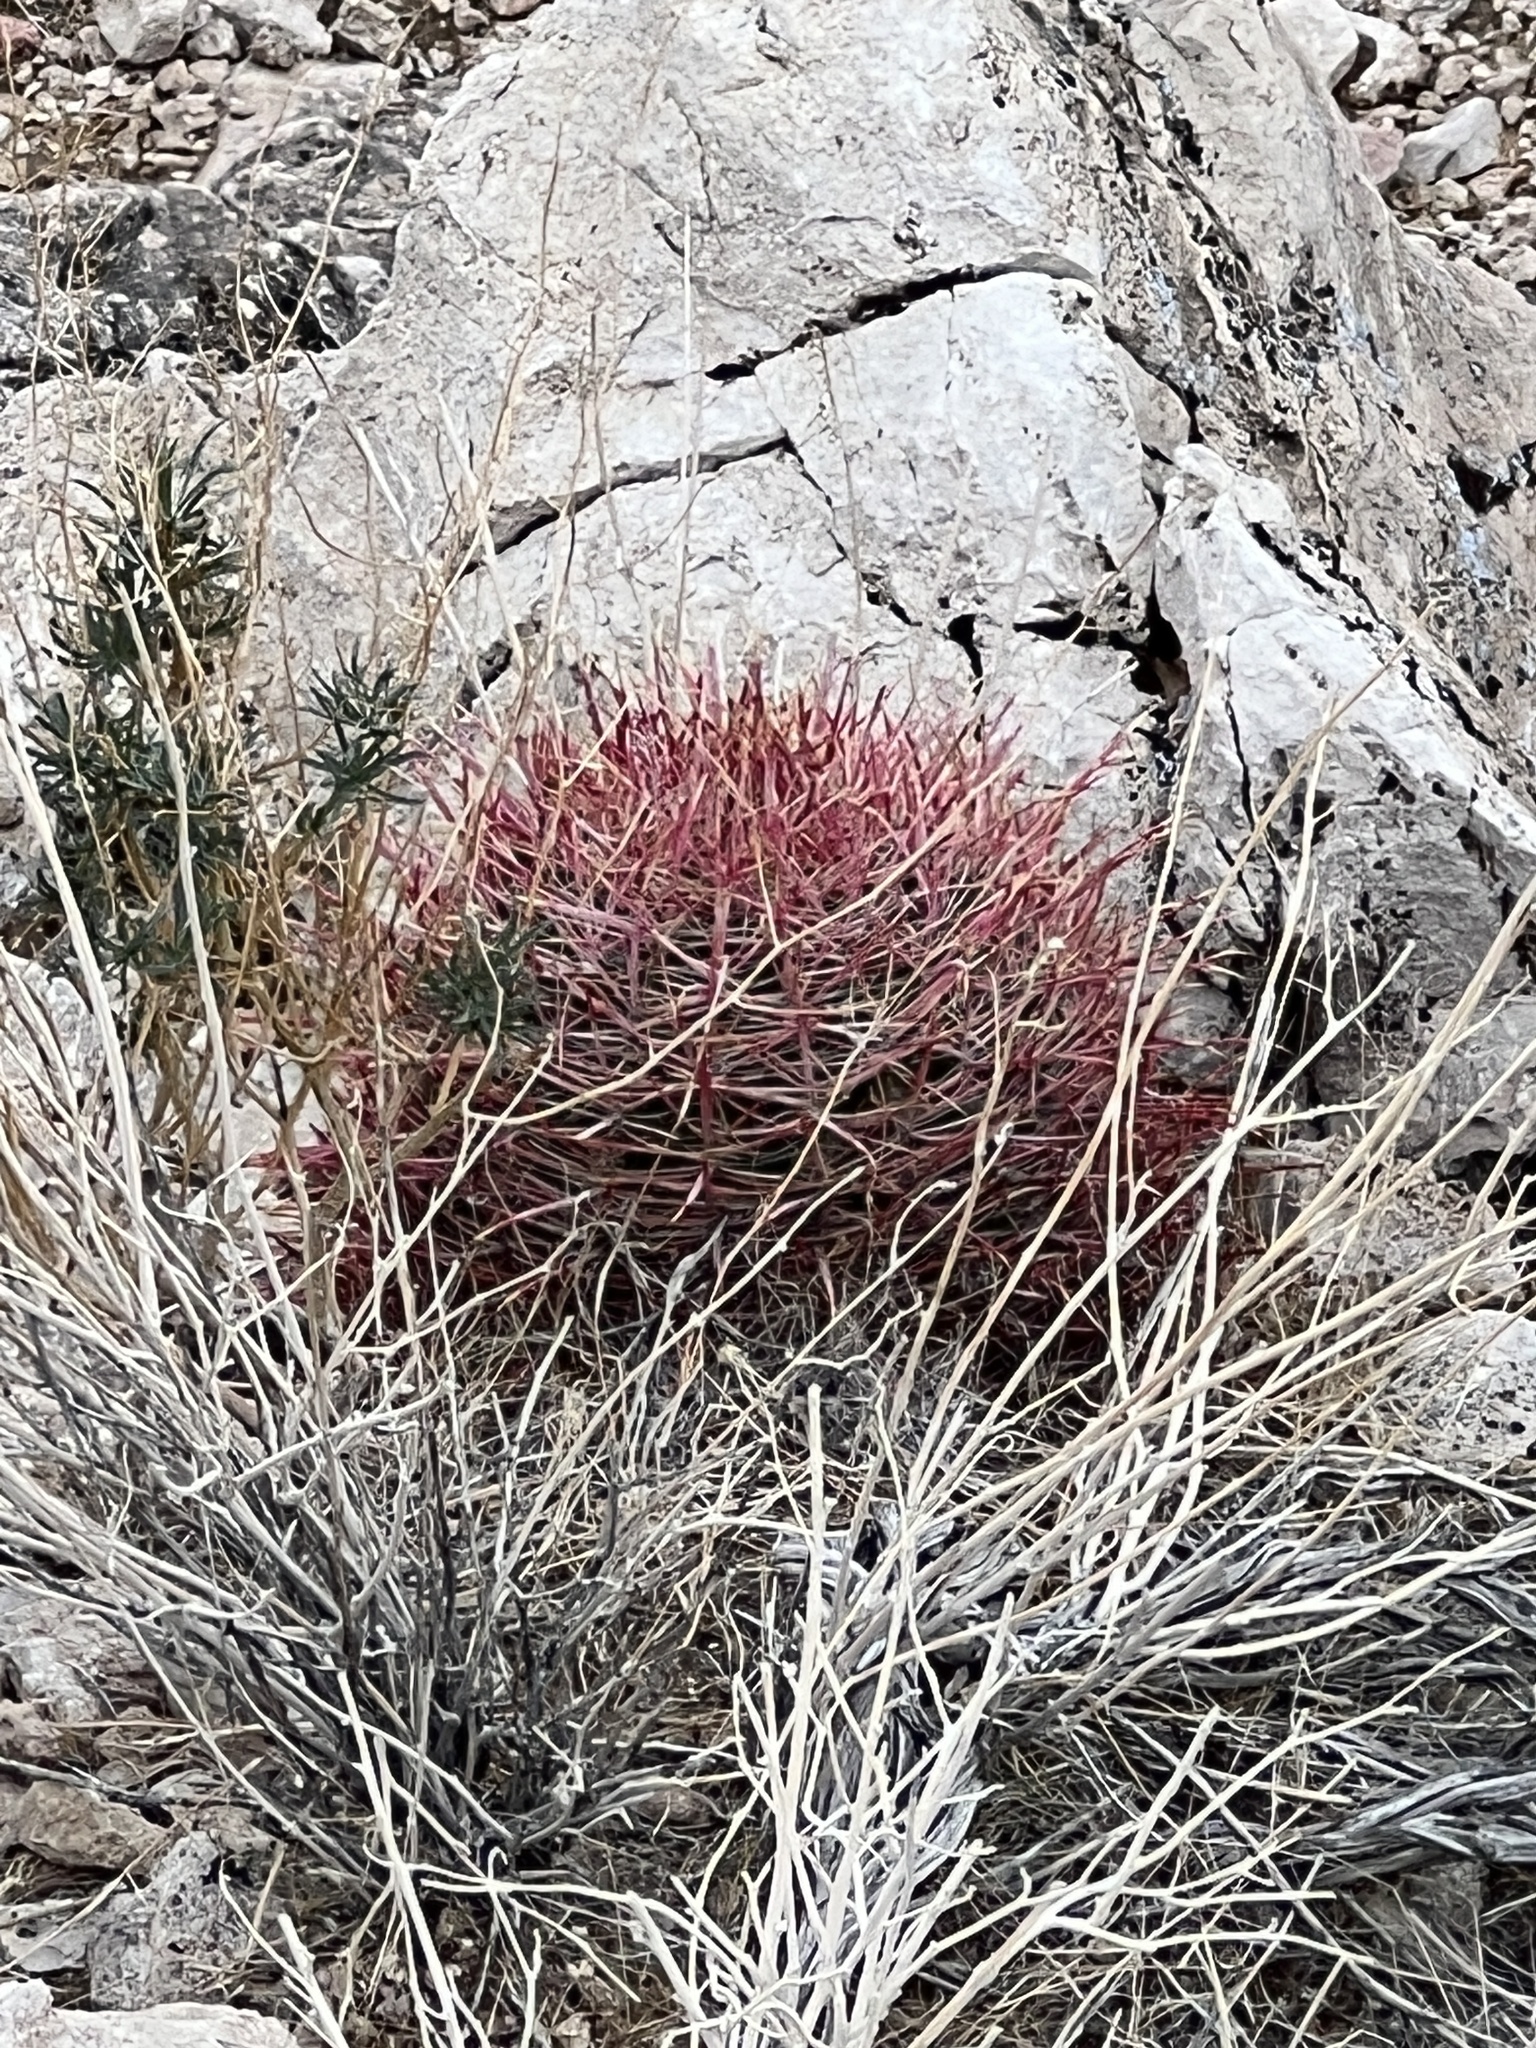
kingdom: Plantae
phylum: Tracheophyta
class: Magnoliopsida
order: Caryophyllales
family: Cactaceae
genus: Ferocactus
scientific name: Ferocactus cylindraceus
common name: California barrel cactus
